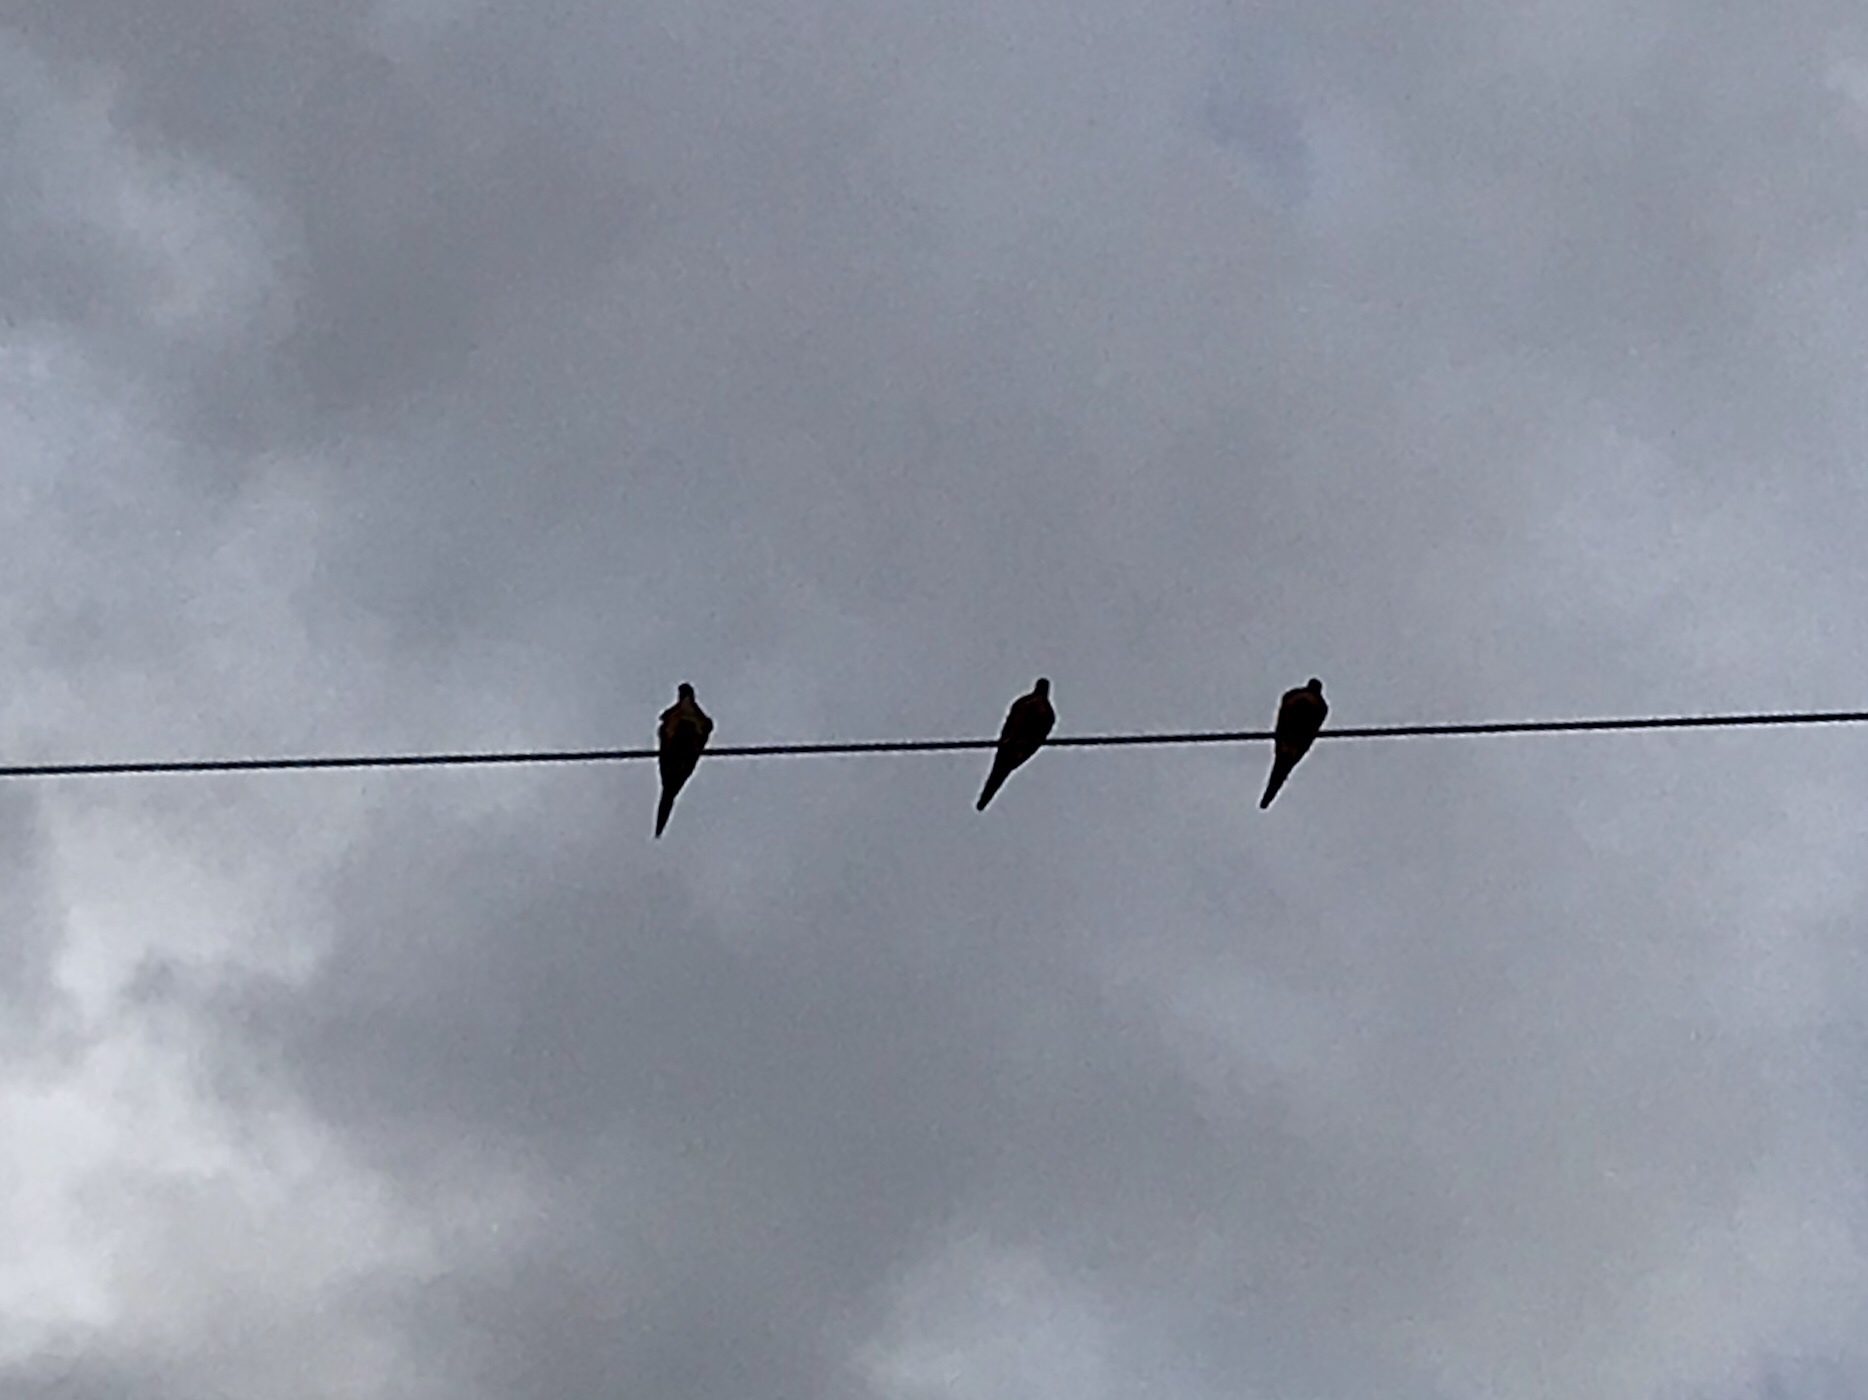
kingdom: Animalia
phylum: Chordata
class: Aves
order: Columbiformes
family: Columbidae
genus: Zenaida
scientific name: Zenaida macroura
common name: Mourning dove
